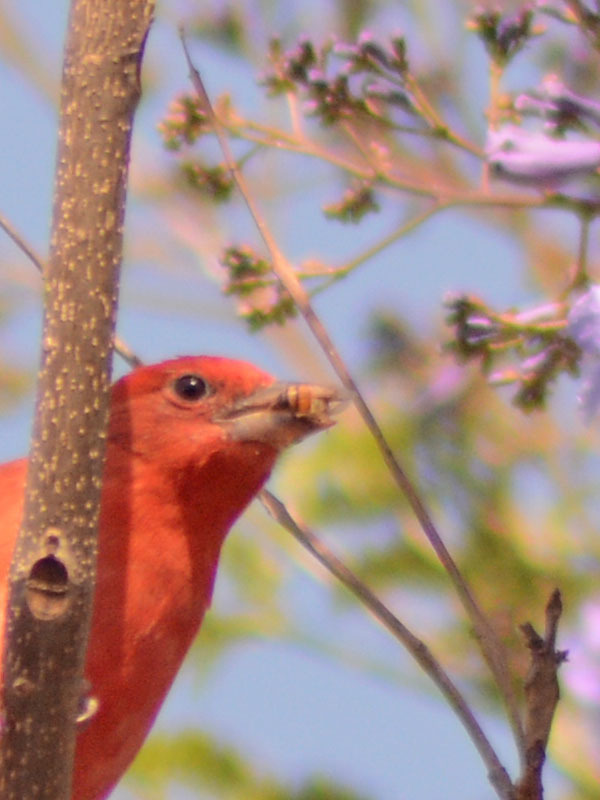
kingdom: Animalia
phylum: Arthropoda
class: Insecta
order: Hymenoptera
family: Apidae
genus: Apis
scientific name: Apis mellifera
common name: Honey bee
